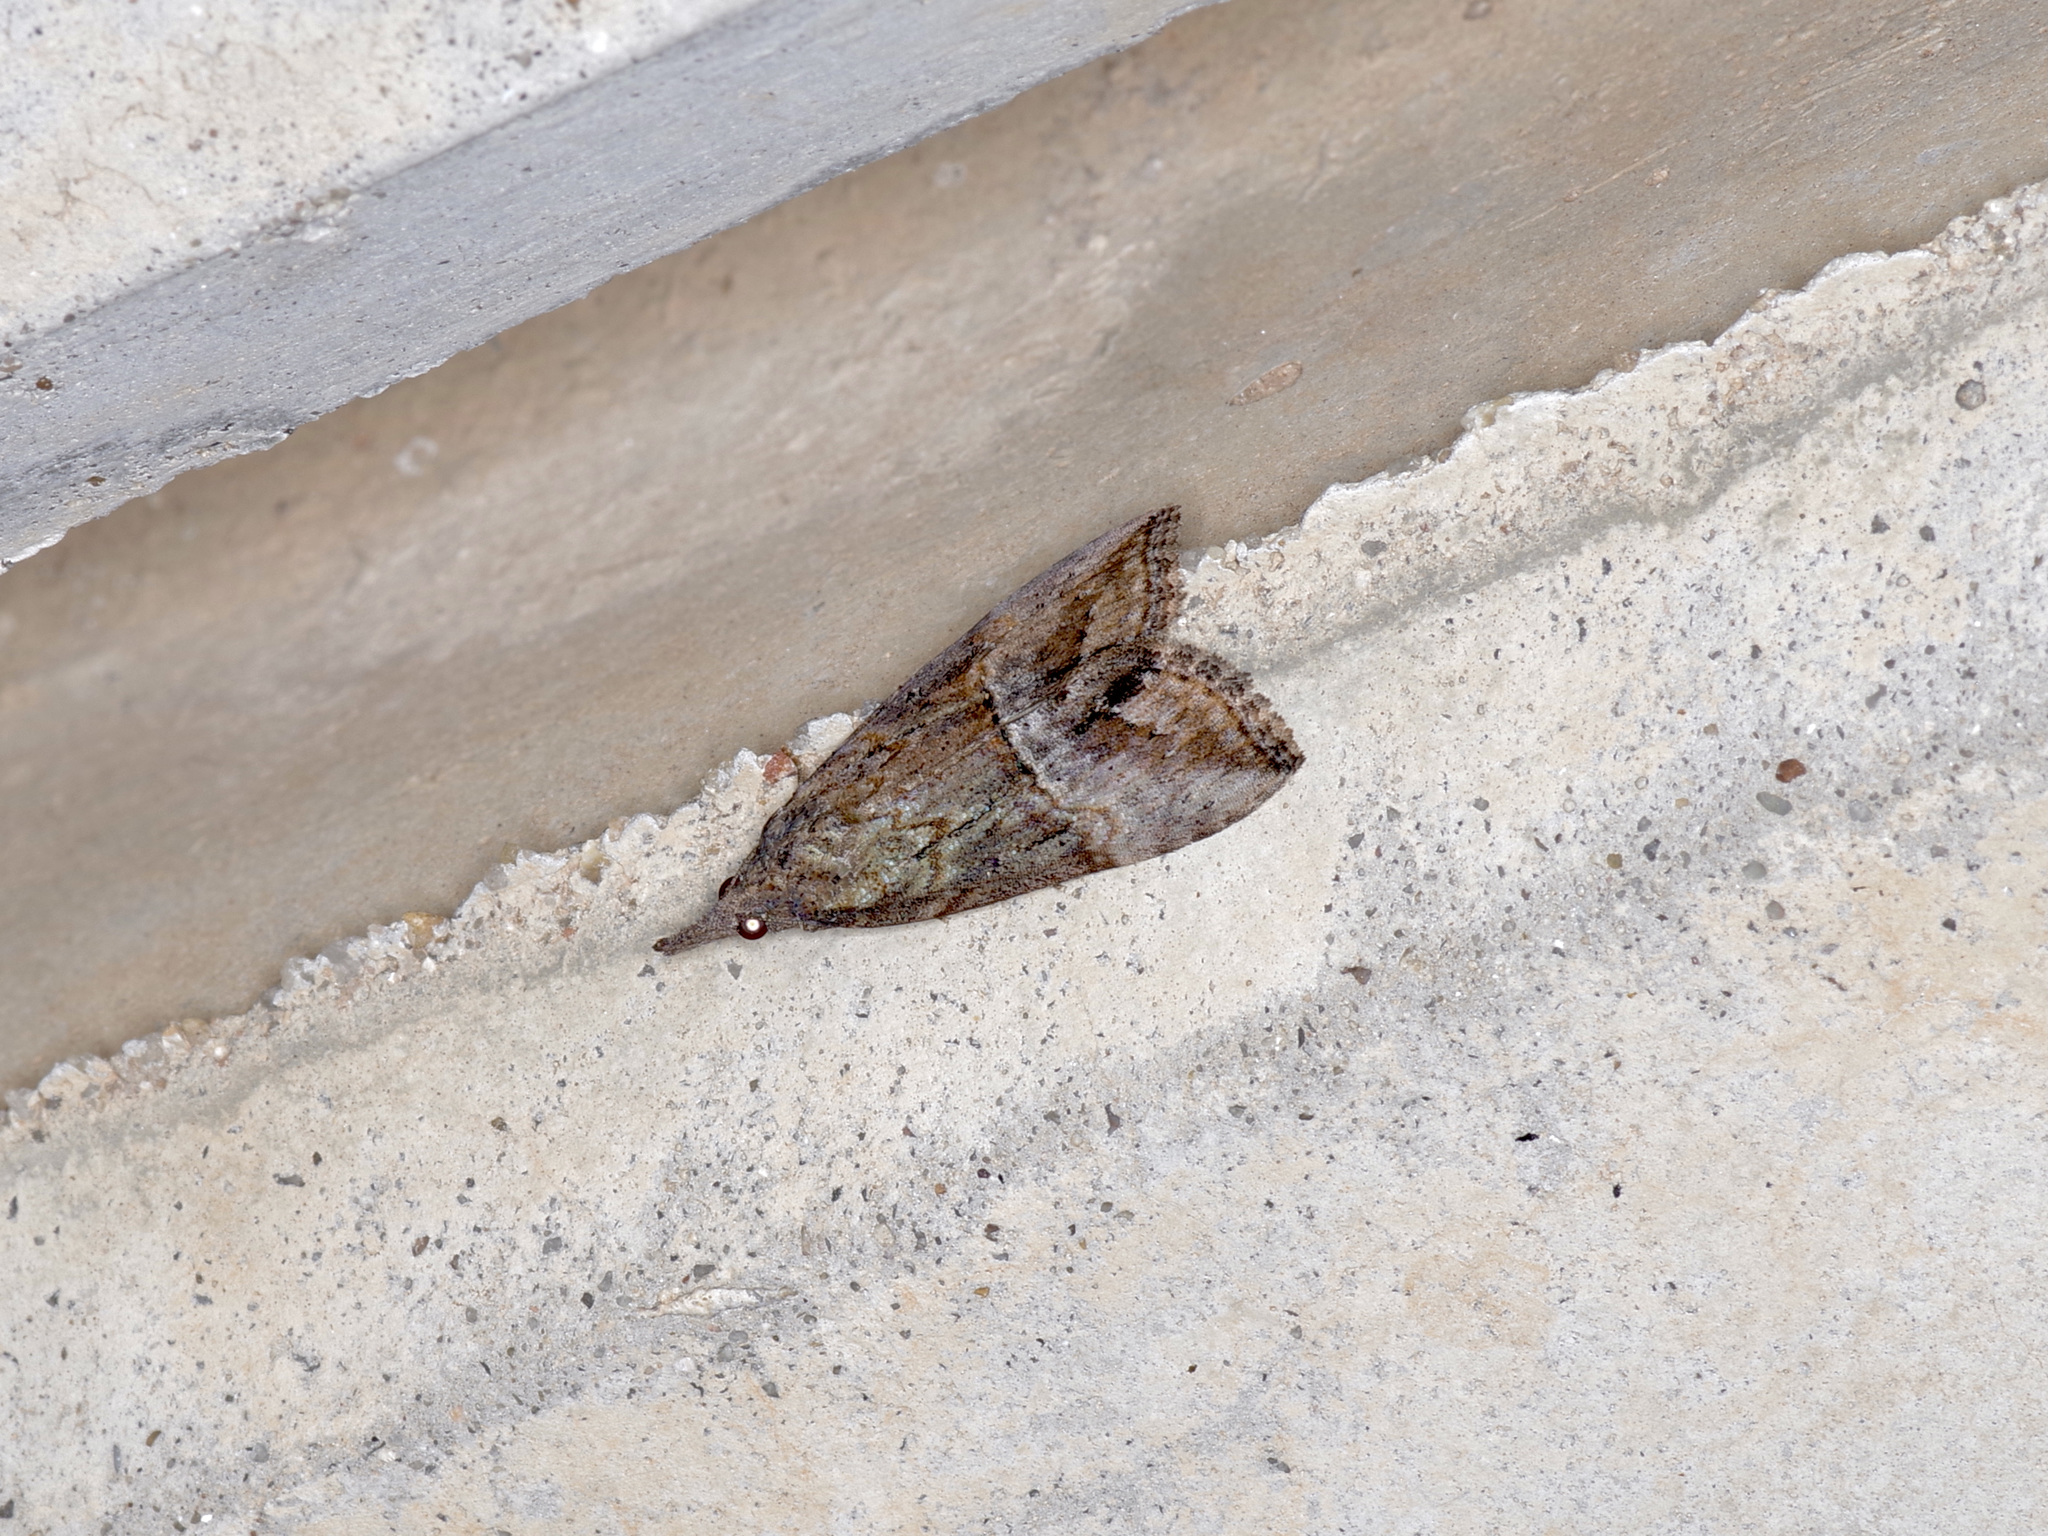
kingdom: Animalia
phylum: Arthropoda
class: Insecta
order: Lepidoptera
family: Erebidae
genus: Hypena
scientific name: Hypena scabra
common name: Green cloverworm
